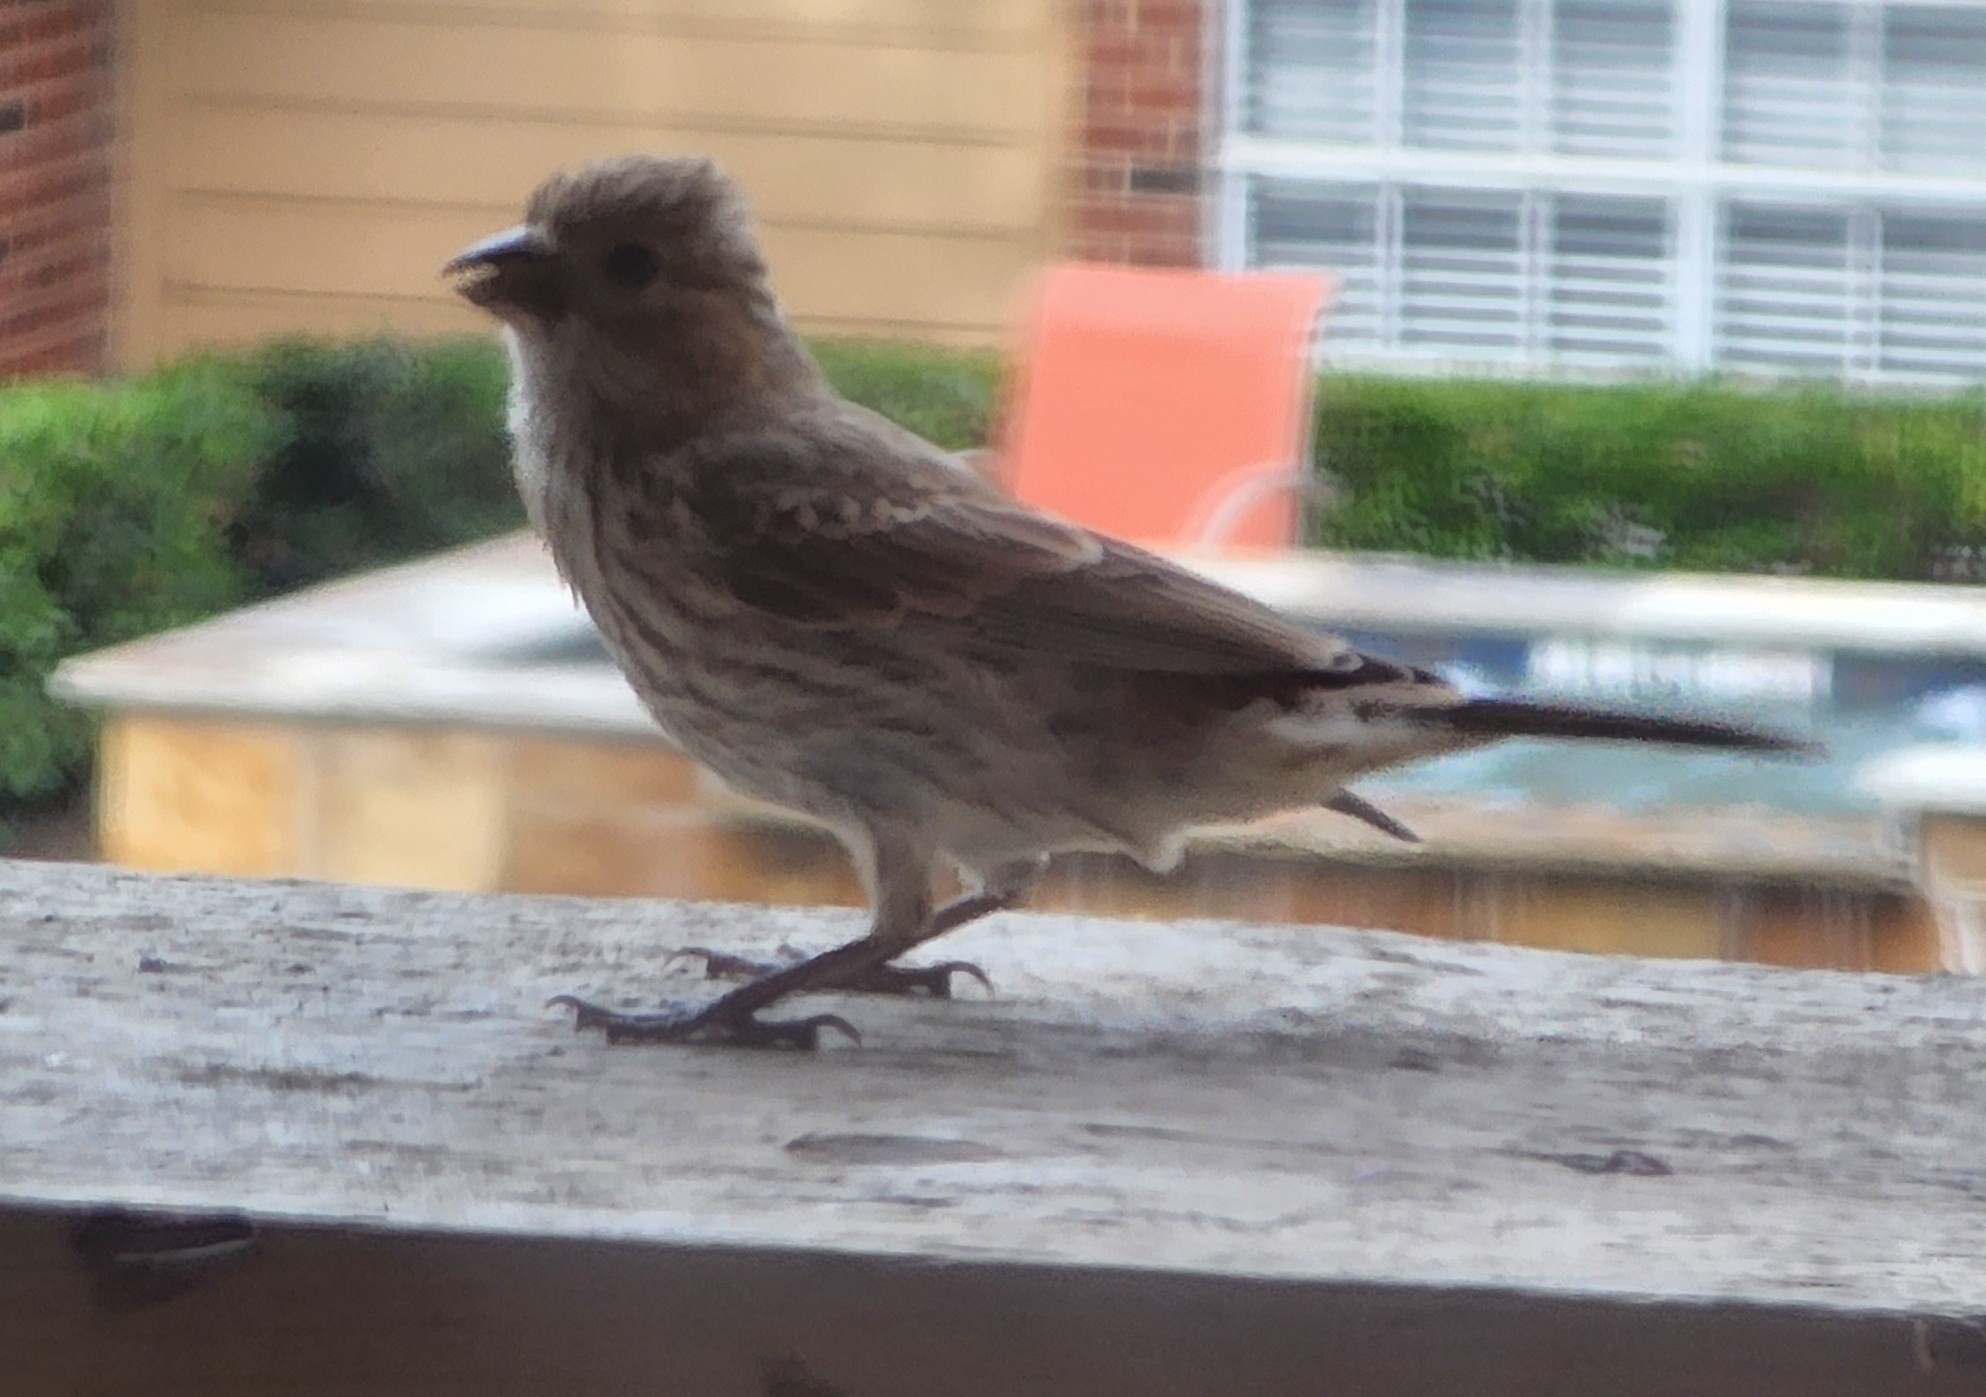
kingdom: Animalia
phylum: Chordata
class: Aves
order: Passeriformes
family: Fringillidae
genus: Haemorhous
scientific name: Haemorhous mexicanus
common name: House finch
